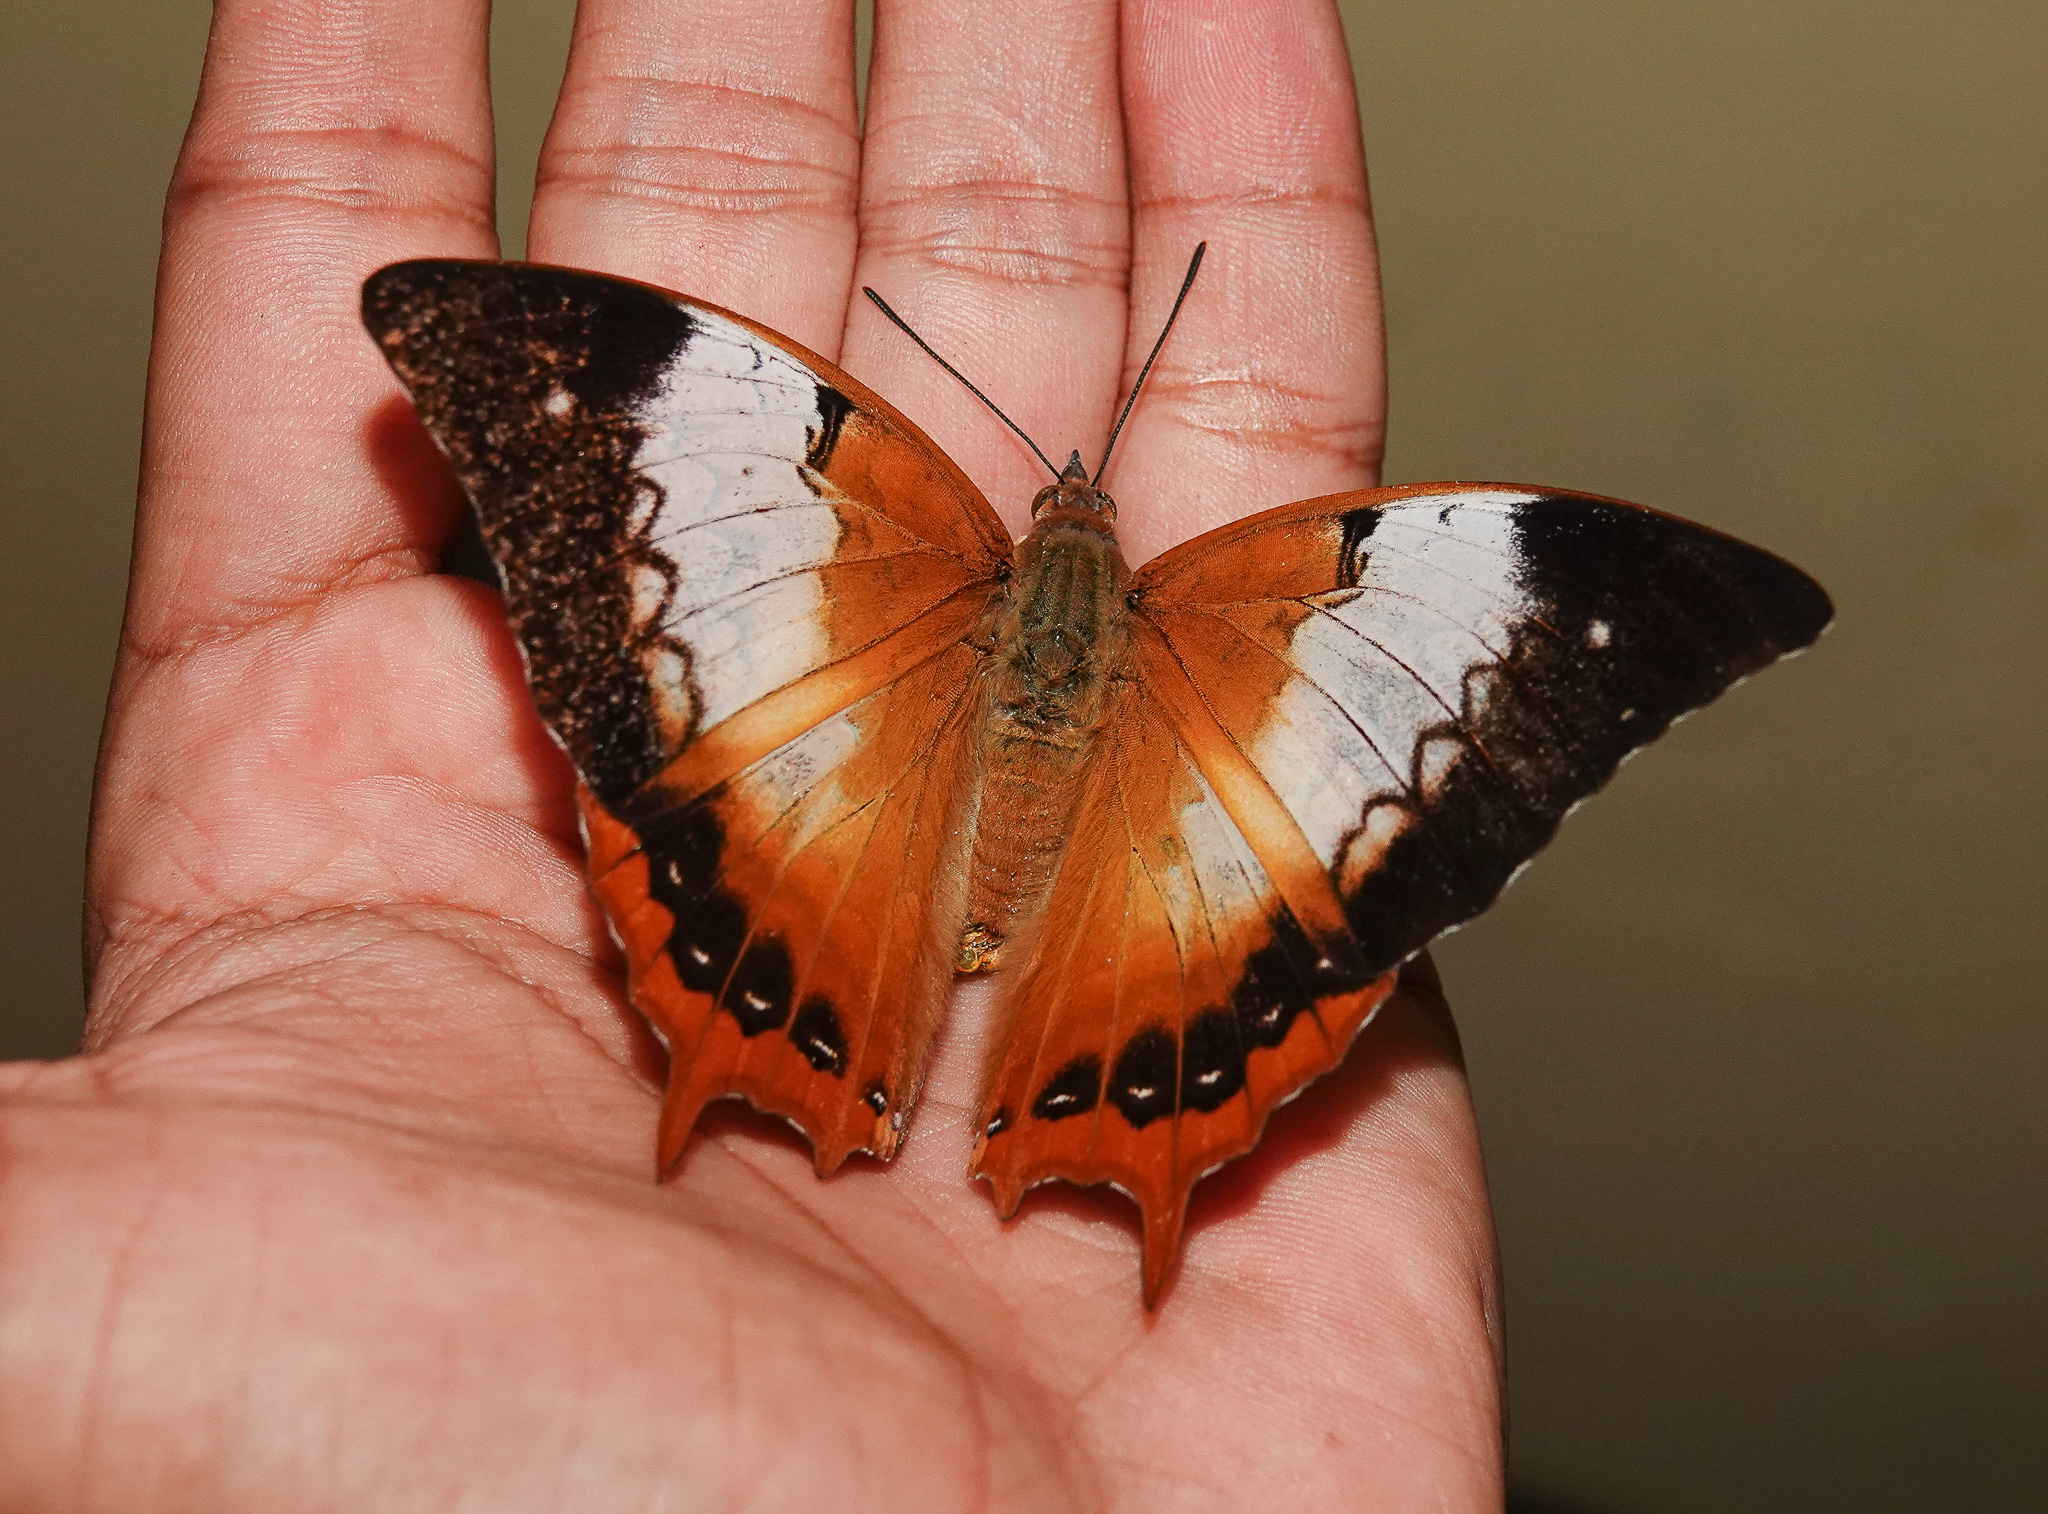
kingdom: Animalia
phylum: Arthropoda
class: Insecta
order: Lepidoptera
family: Nymphalidae
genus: Charaxes
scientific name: Charaxes bernardus
